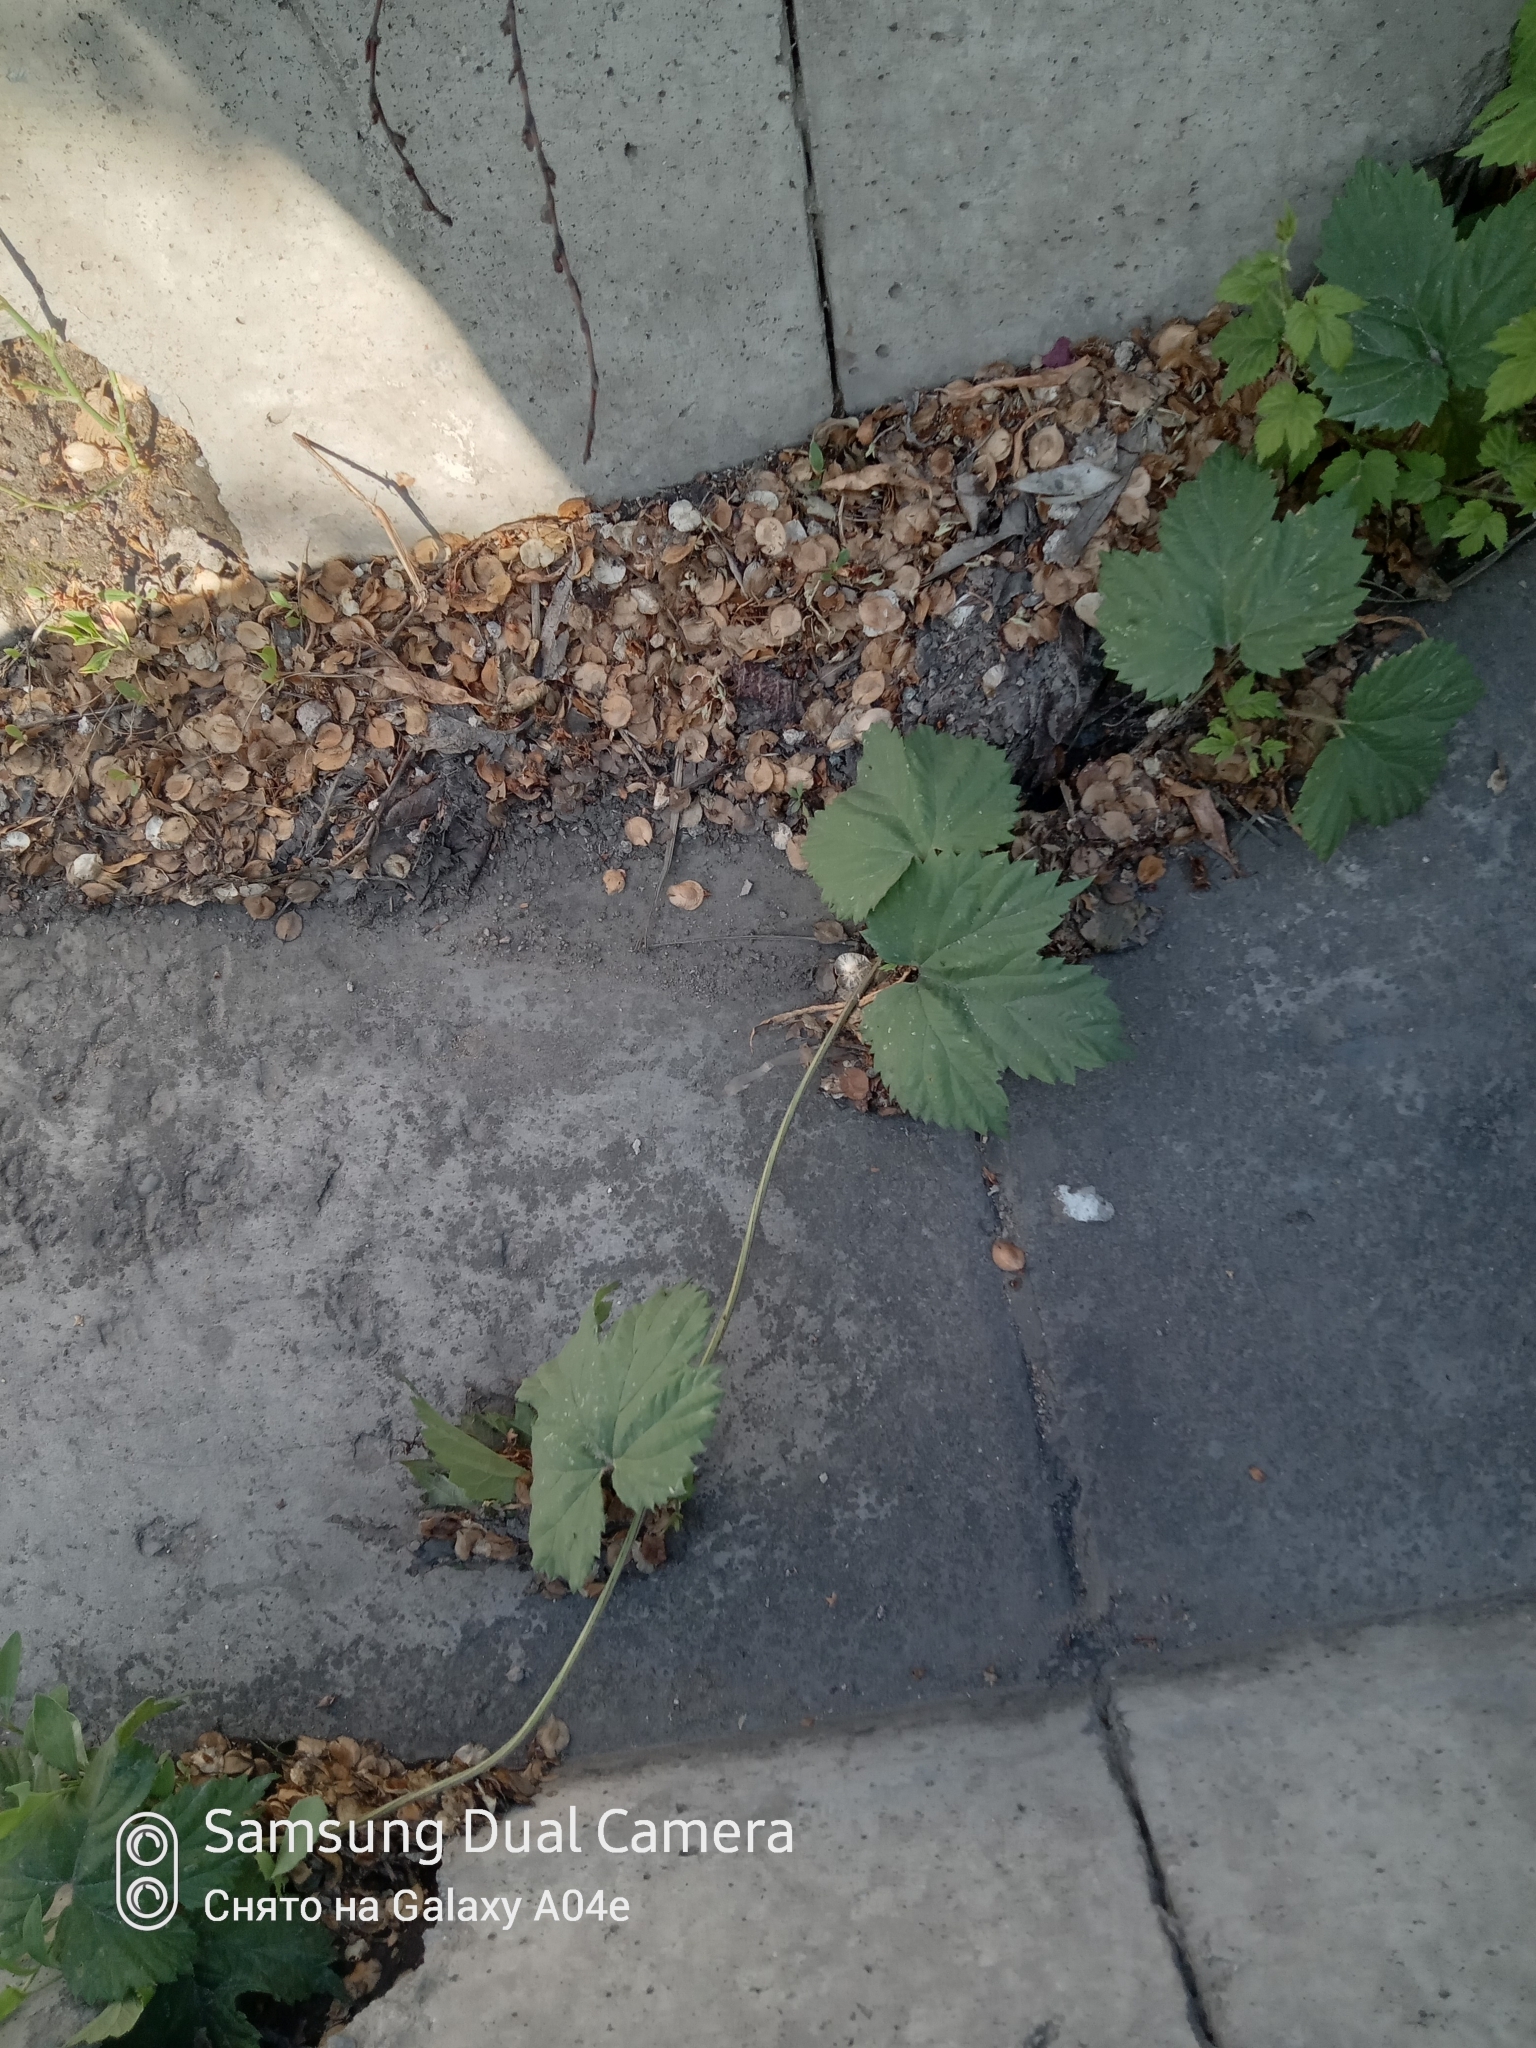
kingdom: Plantae
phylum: Tracheophyta
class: Magnoliopsida
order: Rosales
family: Cannabaceae
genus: Humulus
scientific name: Humulus lupulus
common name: Hop
